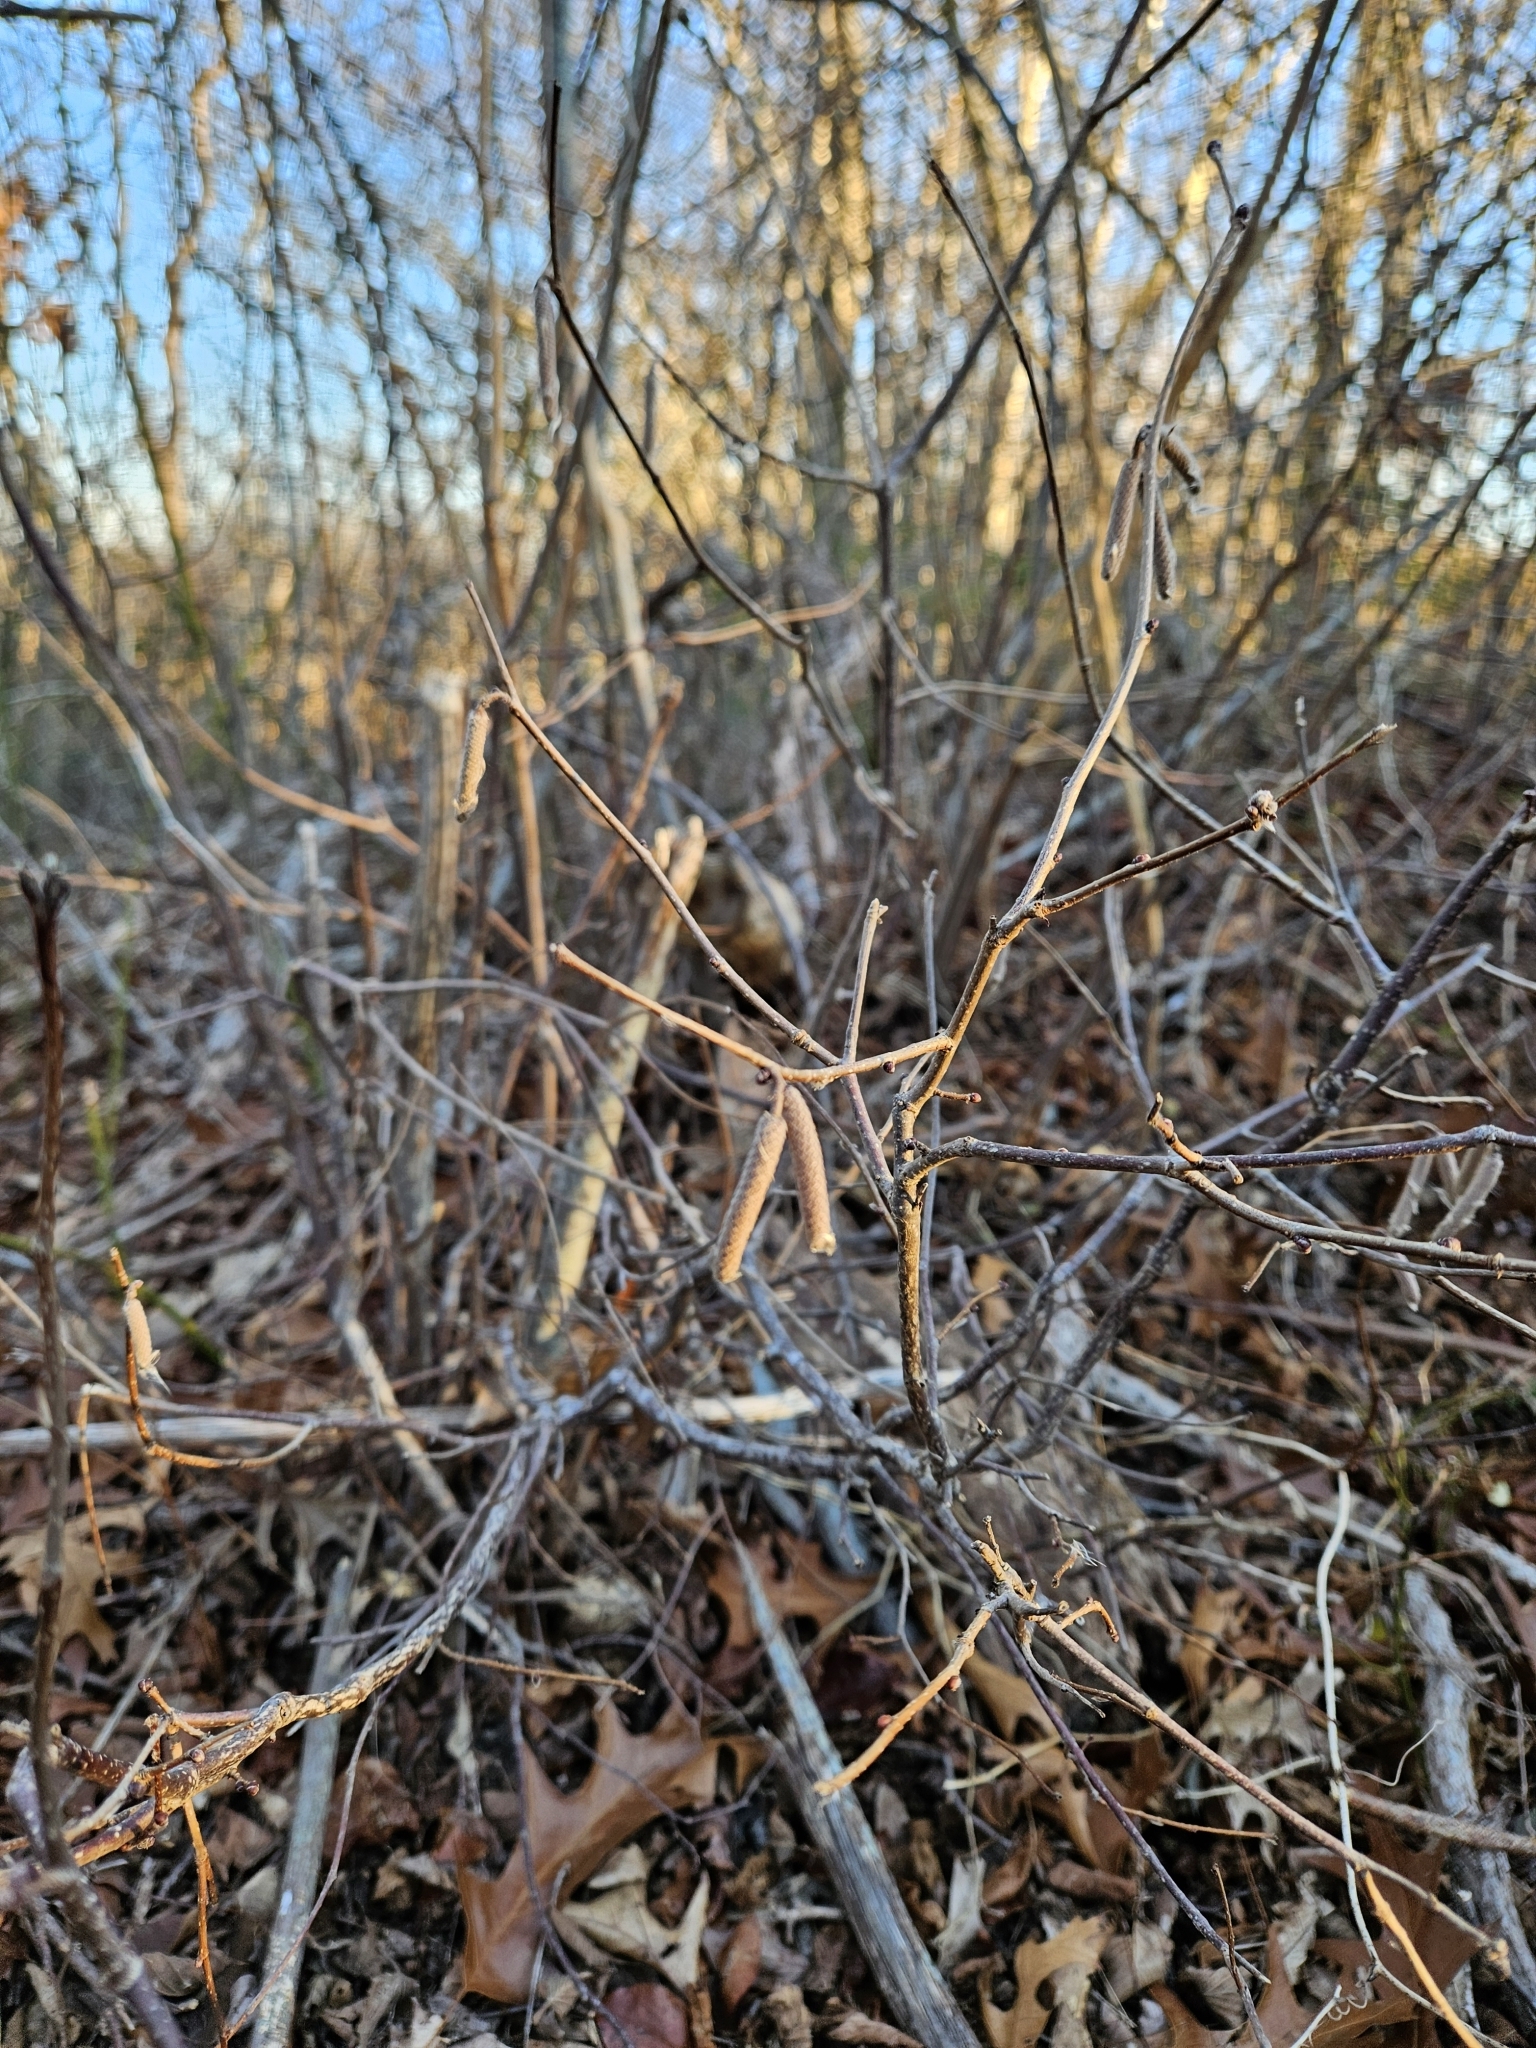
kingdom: Plantae
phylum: Tracheophyta
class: Magnoliopsida
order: Fagales
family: Betulaceae
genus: Corylus
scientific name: Corylus americana
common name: American hazel
